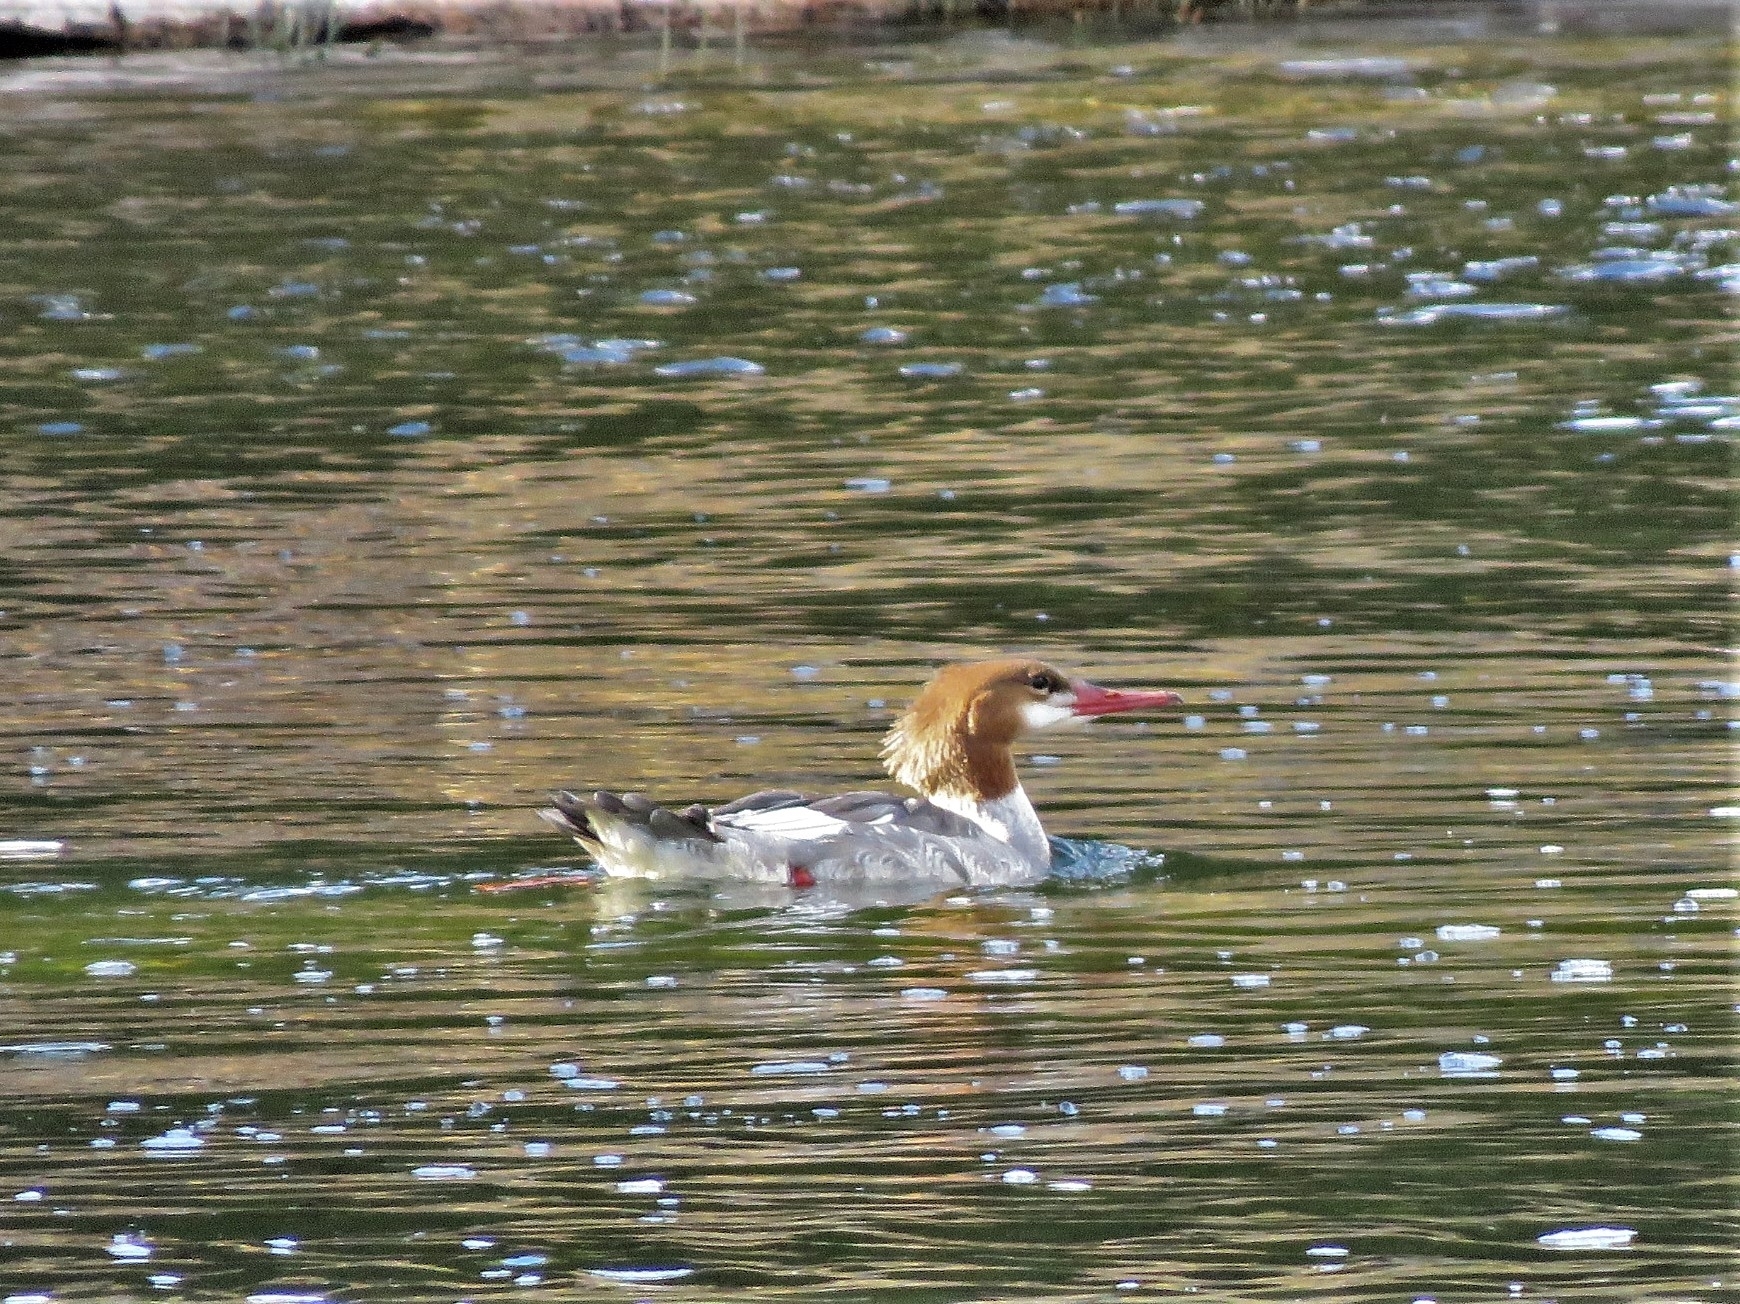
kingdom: Animalia
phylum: Chordata
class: Aves
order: Anseriformes
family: Anatidae
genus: Mergus
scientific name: Mergus merganser
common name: Common merganser
